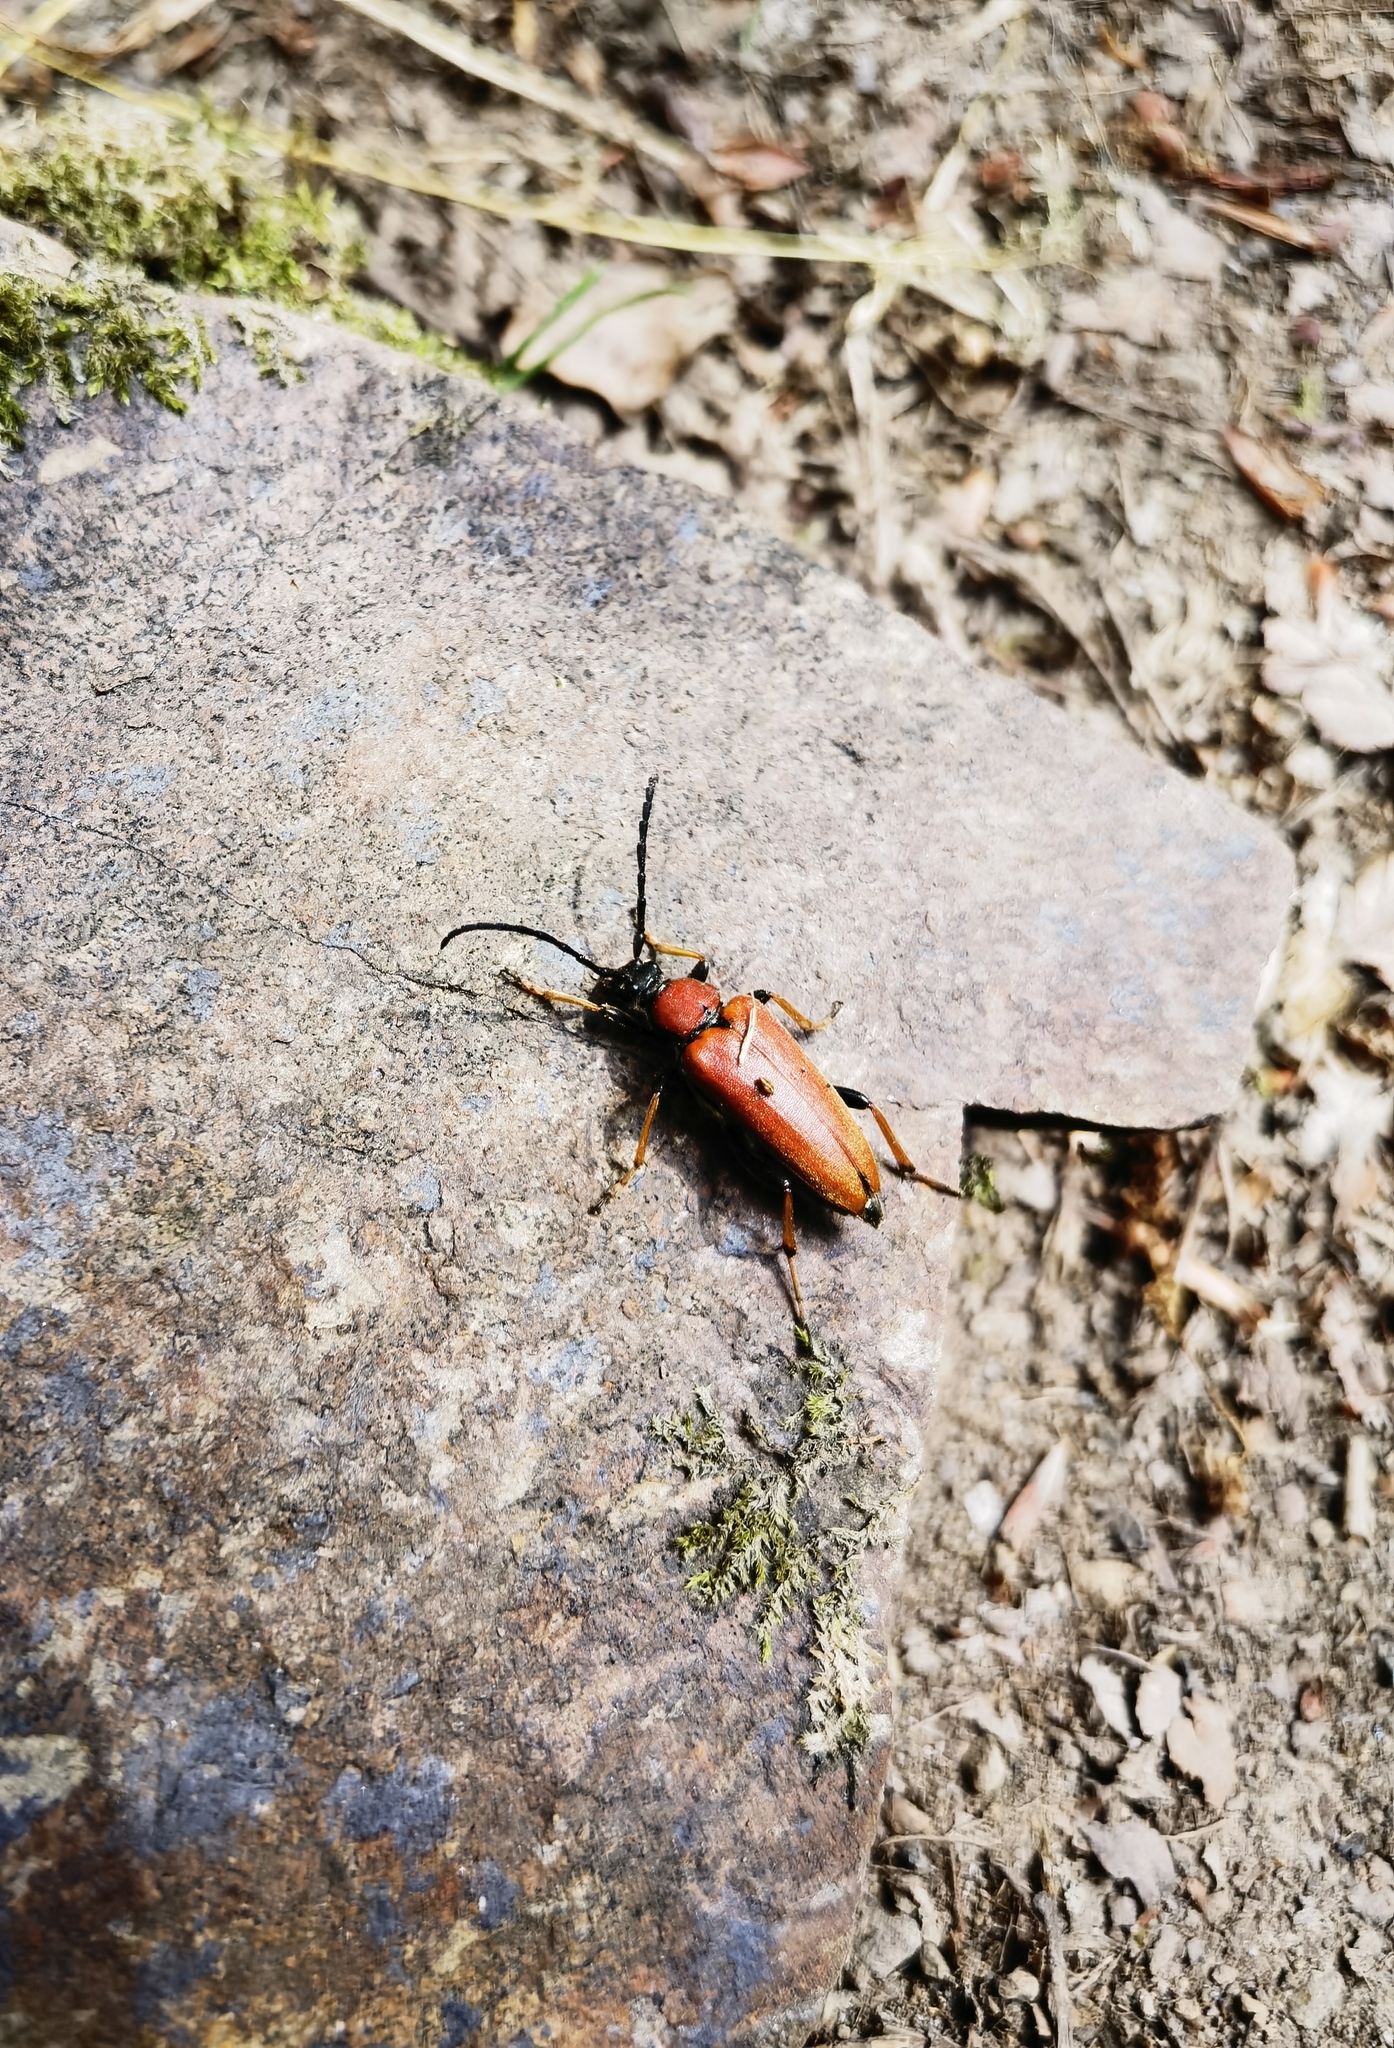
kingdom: Animalia
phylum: Arthropoda
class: Insecta
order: Coleoptera
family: Cerambycidae
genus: Stictoleptura
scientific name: Stictoleptura rubra
